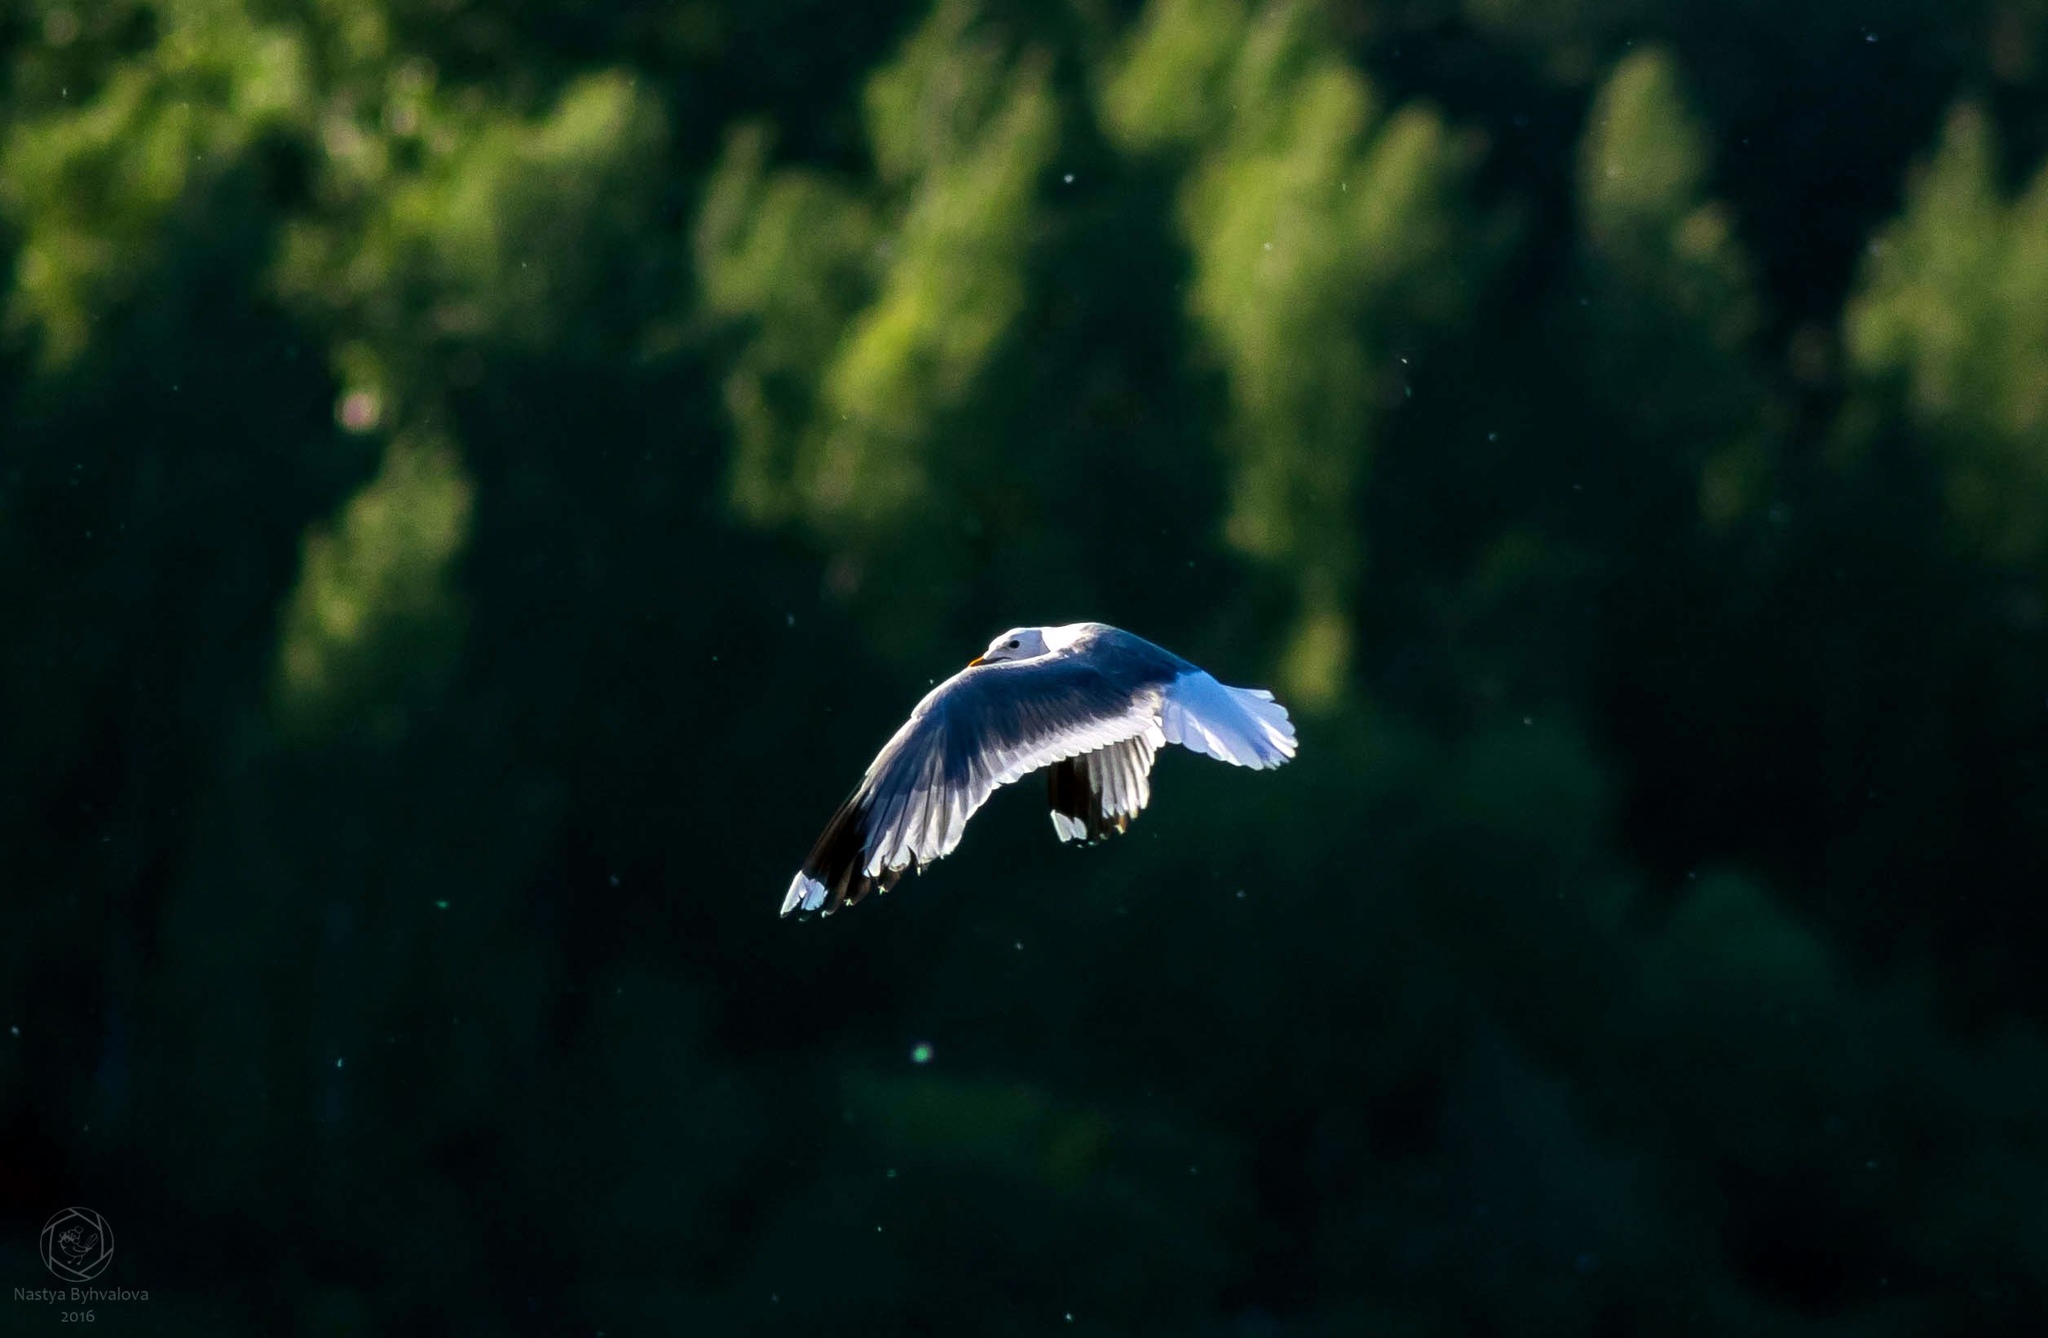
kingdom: Animalia
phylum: Chordata
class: Aves
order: Charadriiformes
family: Laridae
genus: Larus
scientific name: Larus canus
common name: Mew gull
